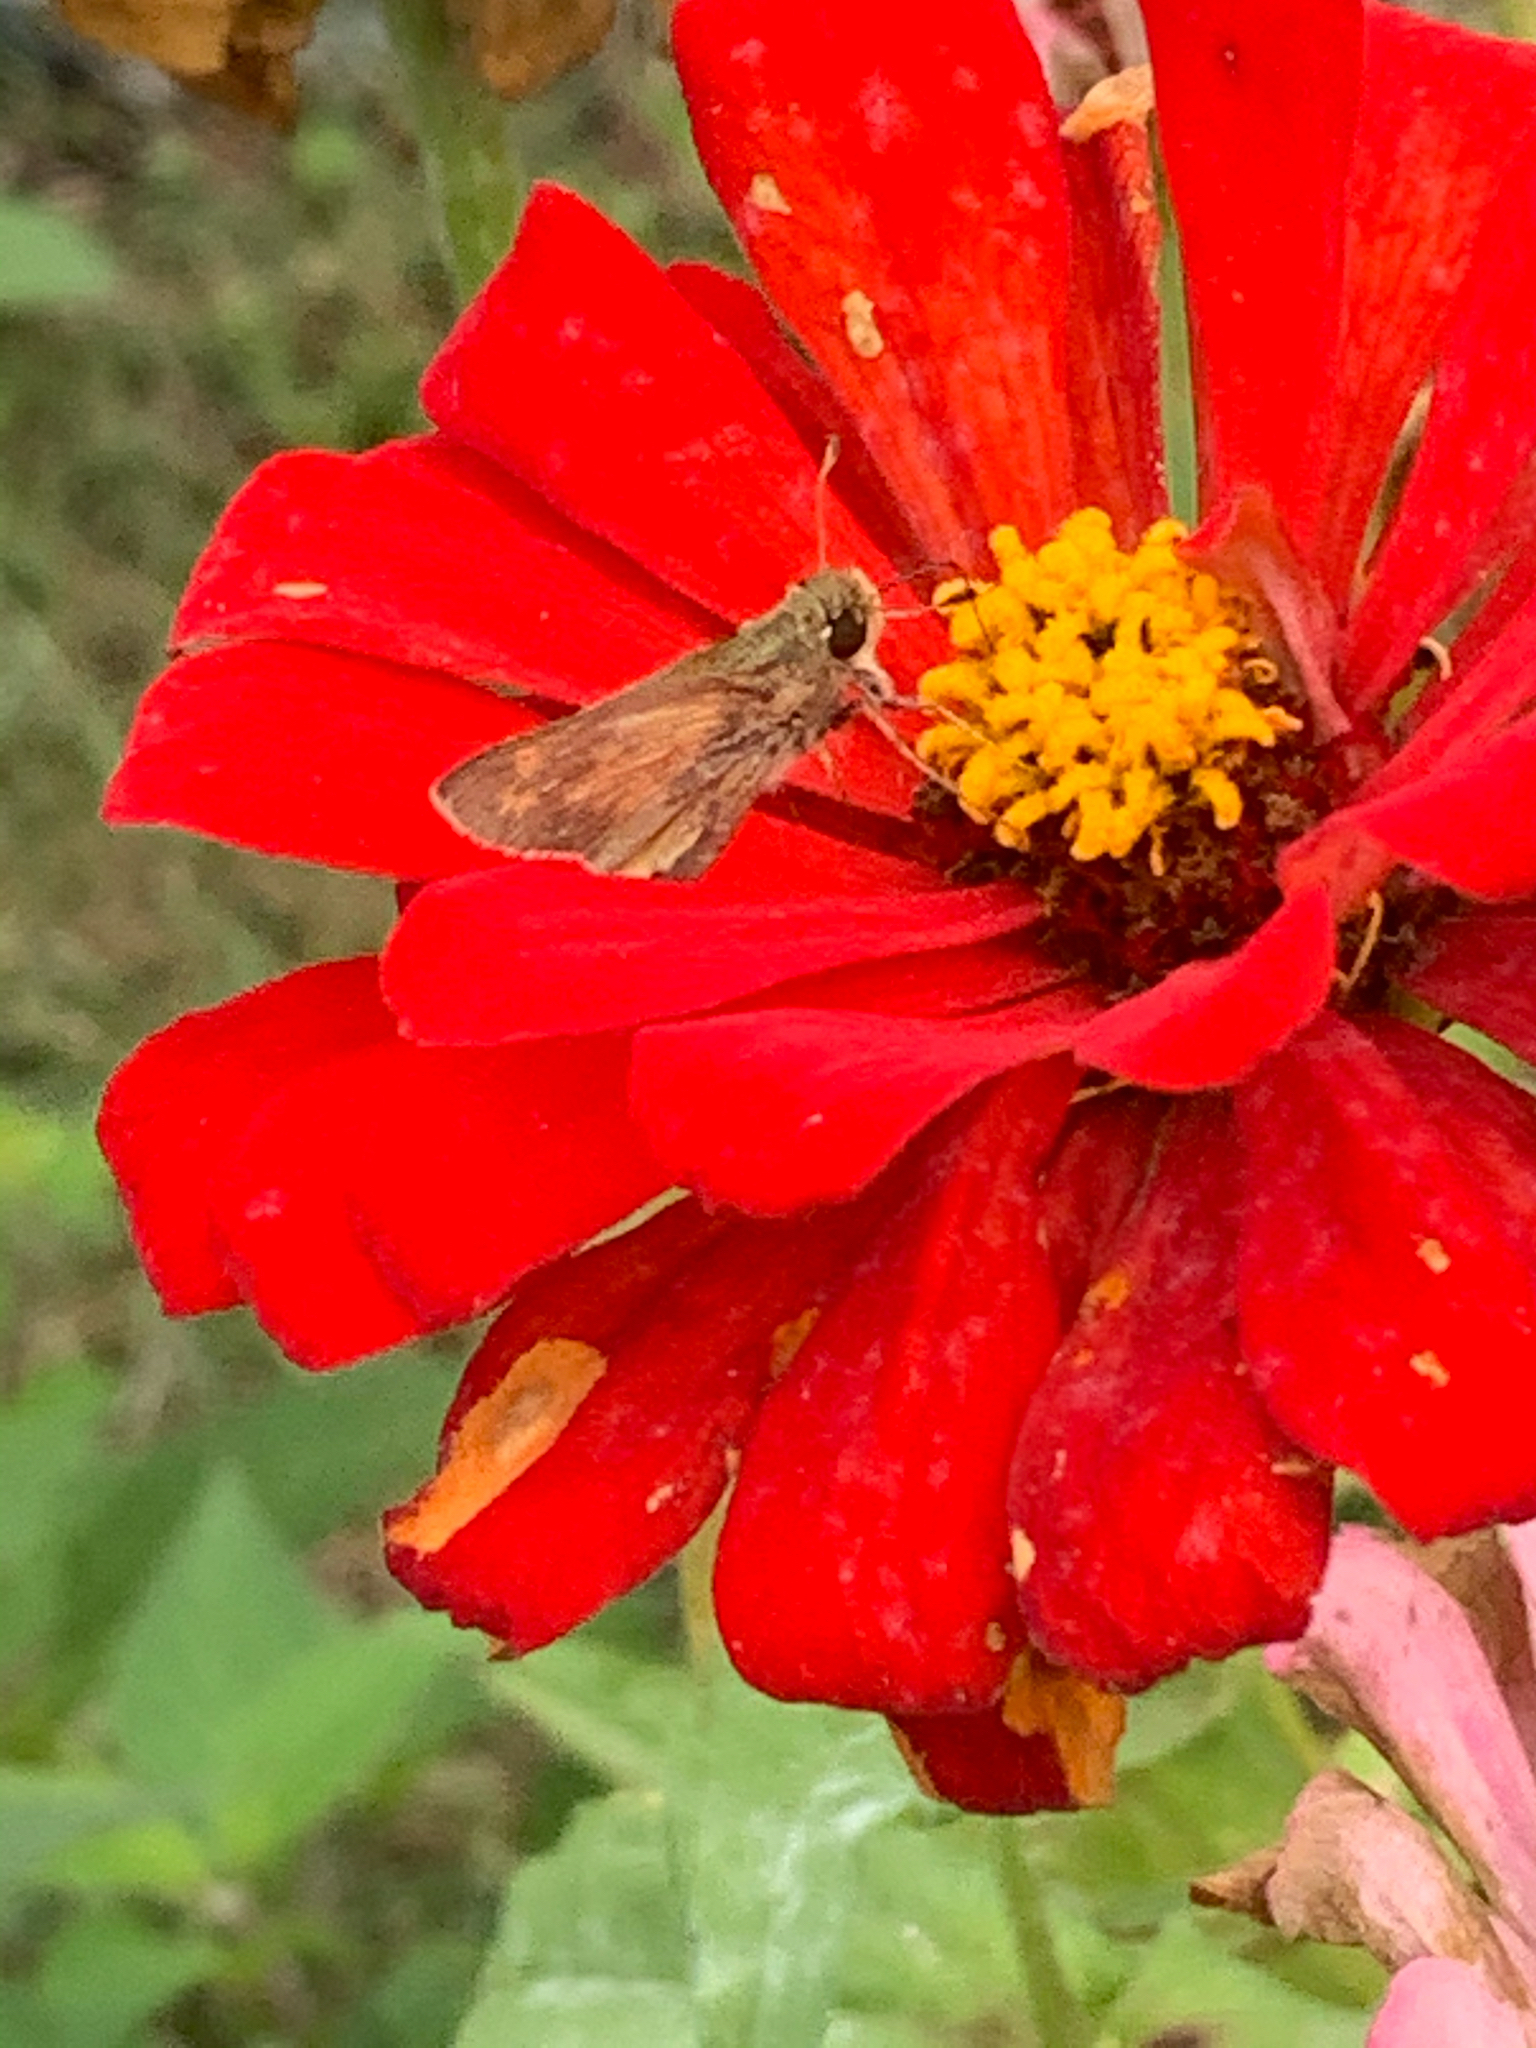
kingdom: Animalia
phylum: Arthropoda
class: Insecta
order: Lepidoptera
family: Hesperiidae
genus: Atalopedes
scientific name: Atalopedes
